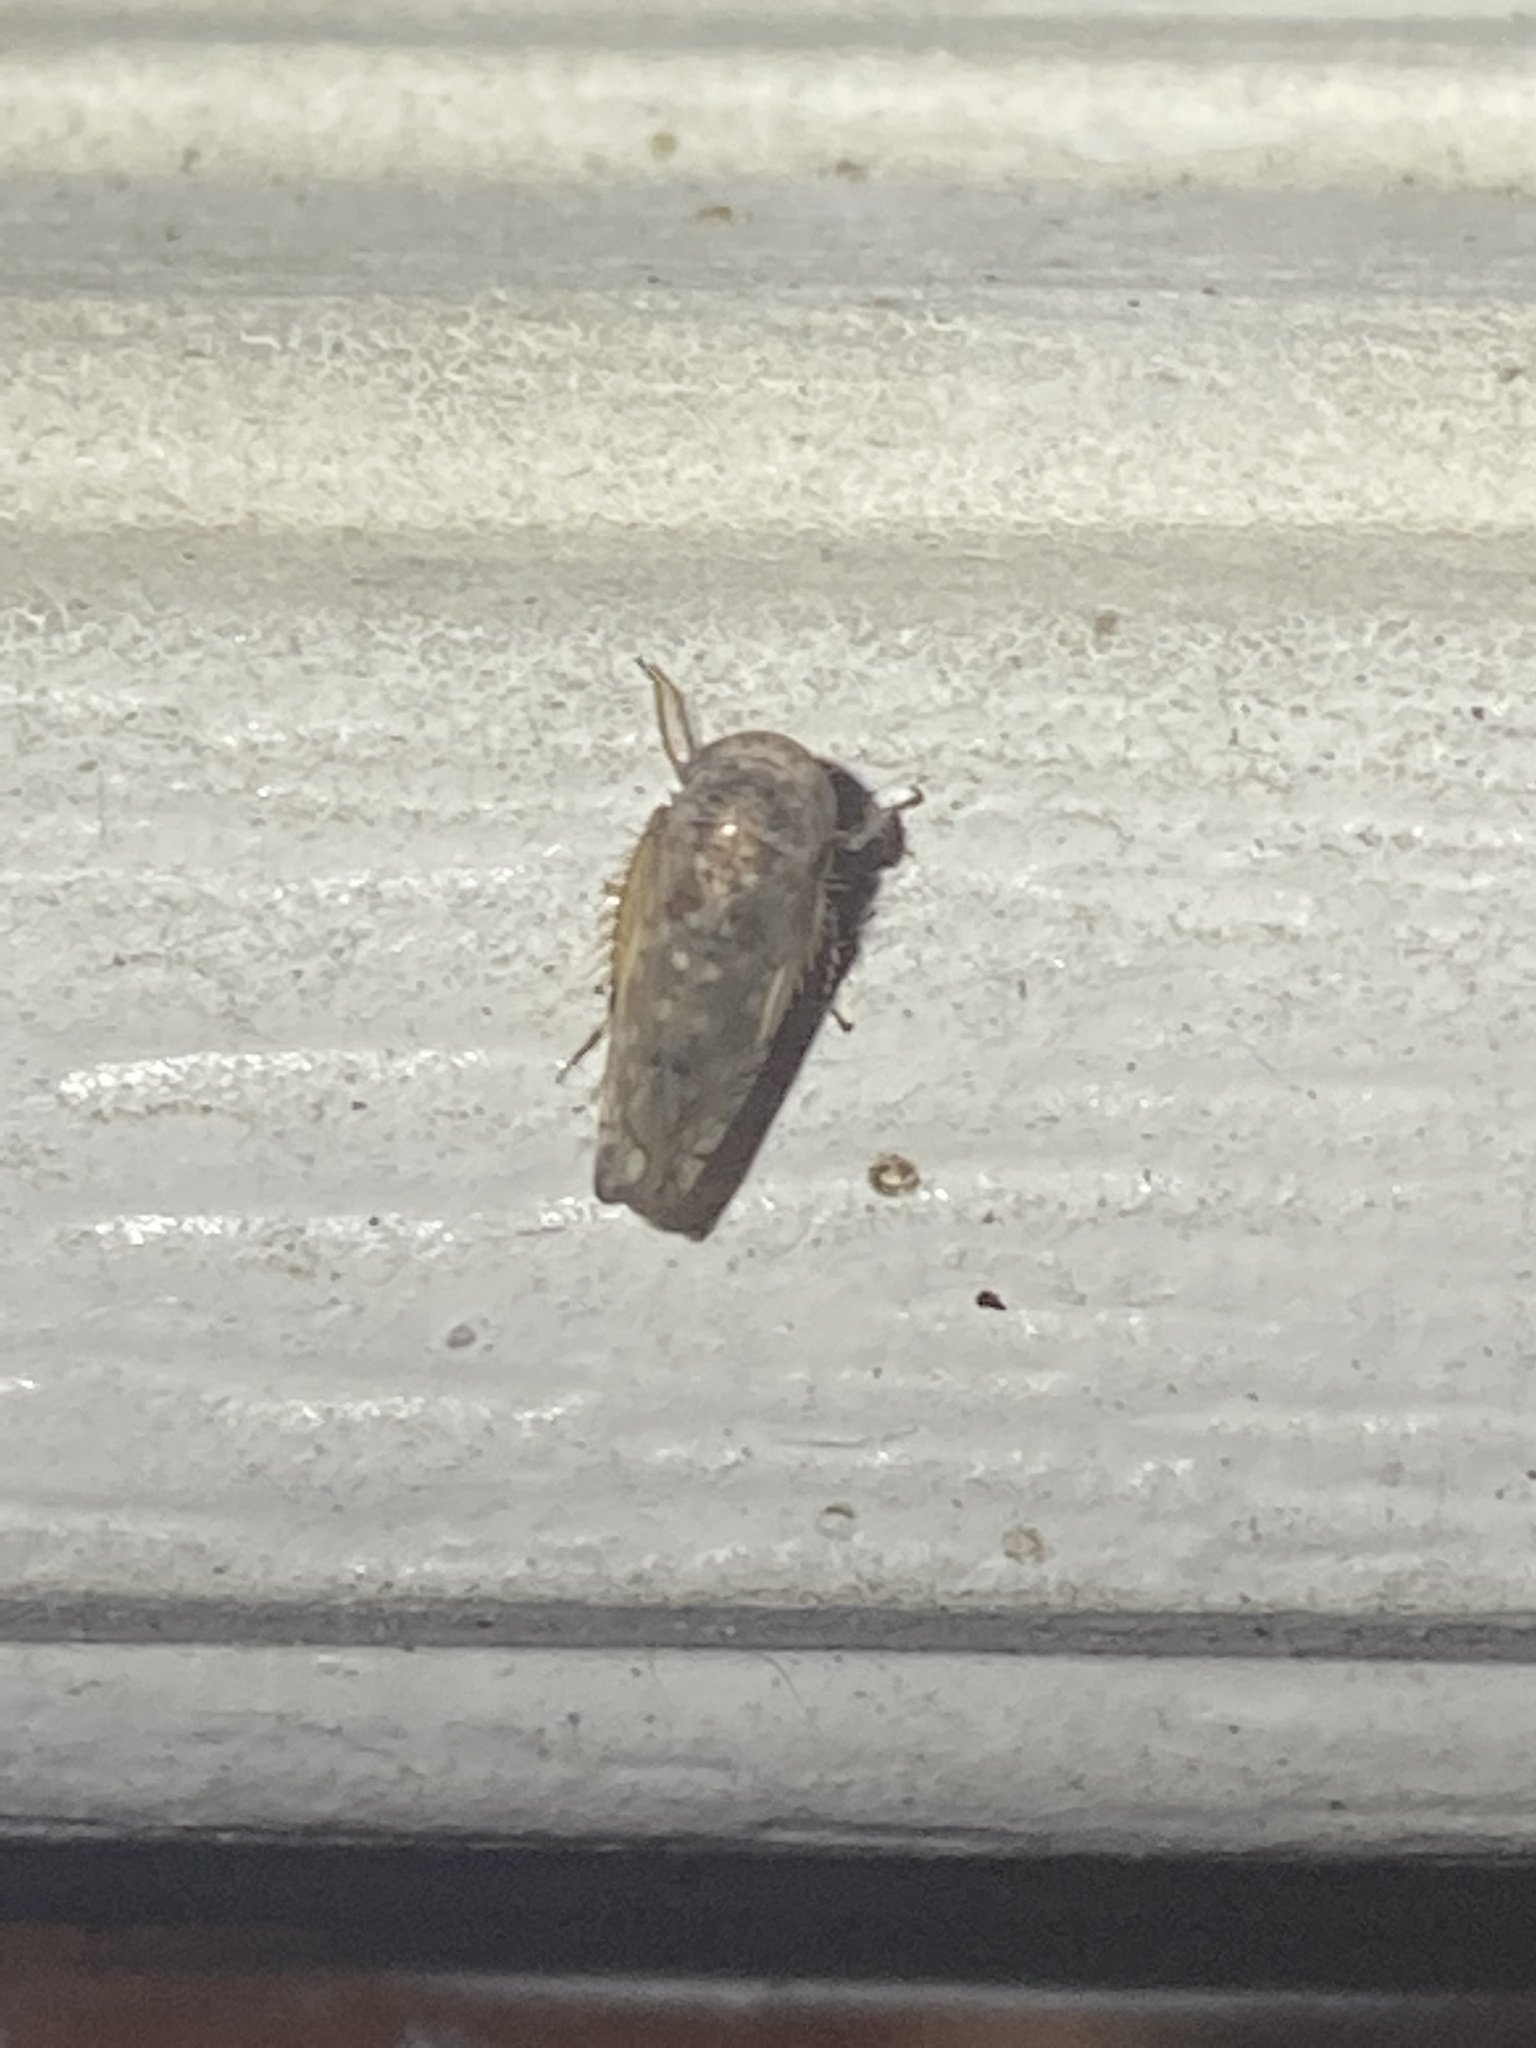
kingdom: Animalia
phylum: Arthropoda
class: Insecta
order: Hemiptera
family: Cicadellidae
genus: Menosoma
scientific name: Menosoma cinctum
